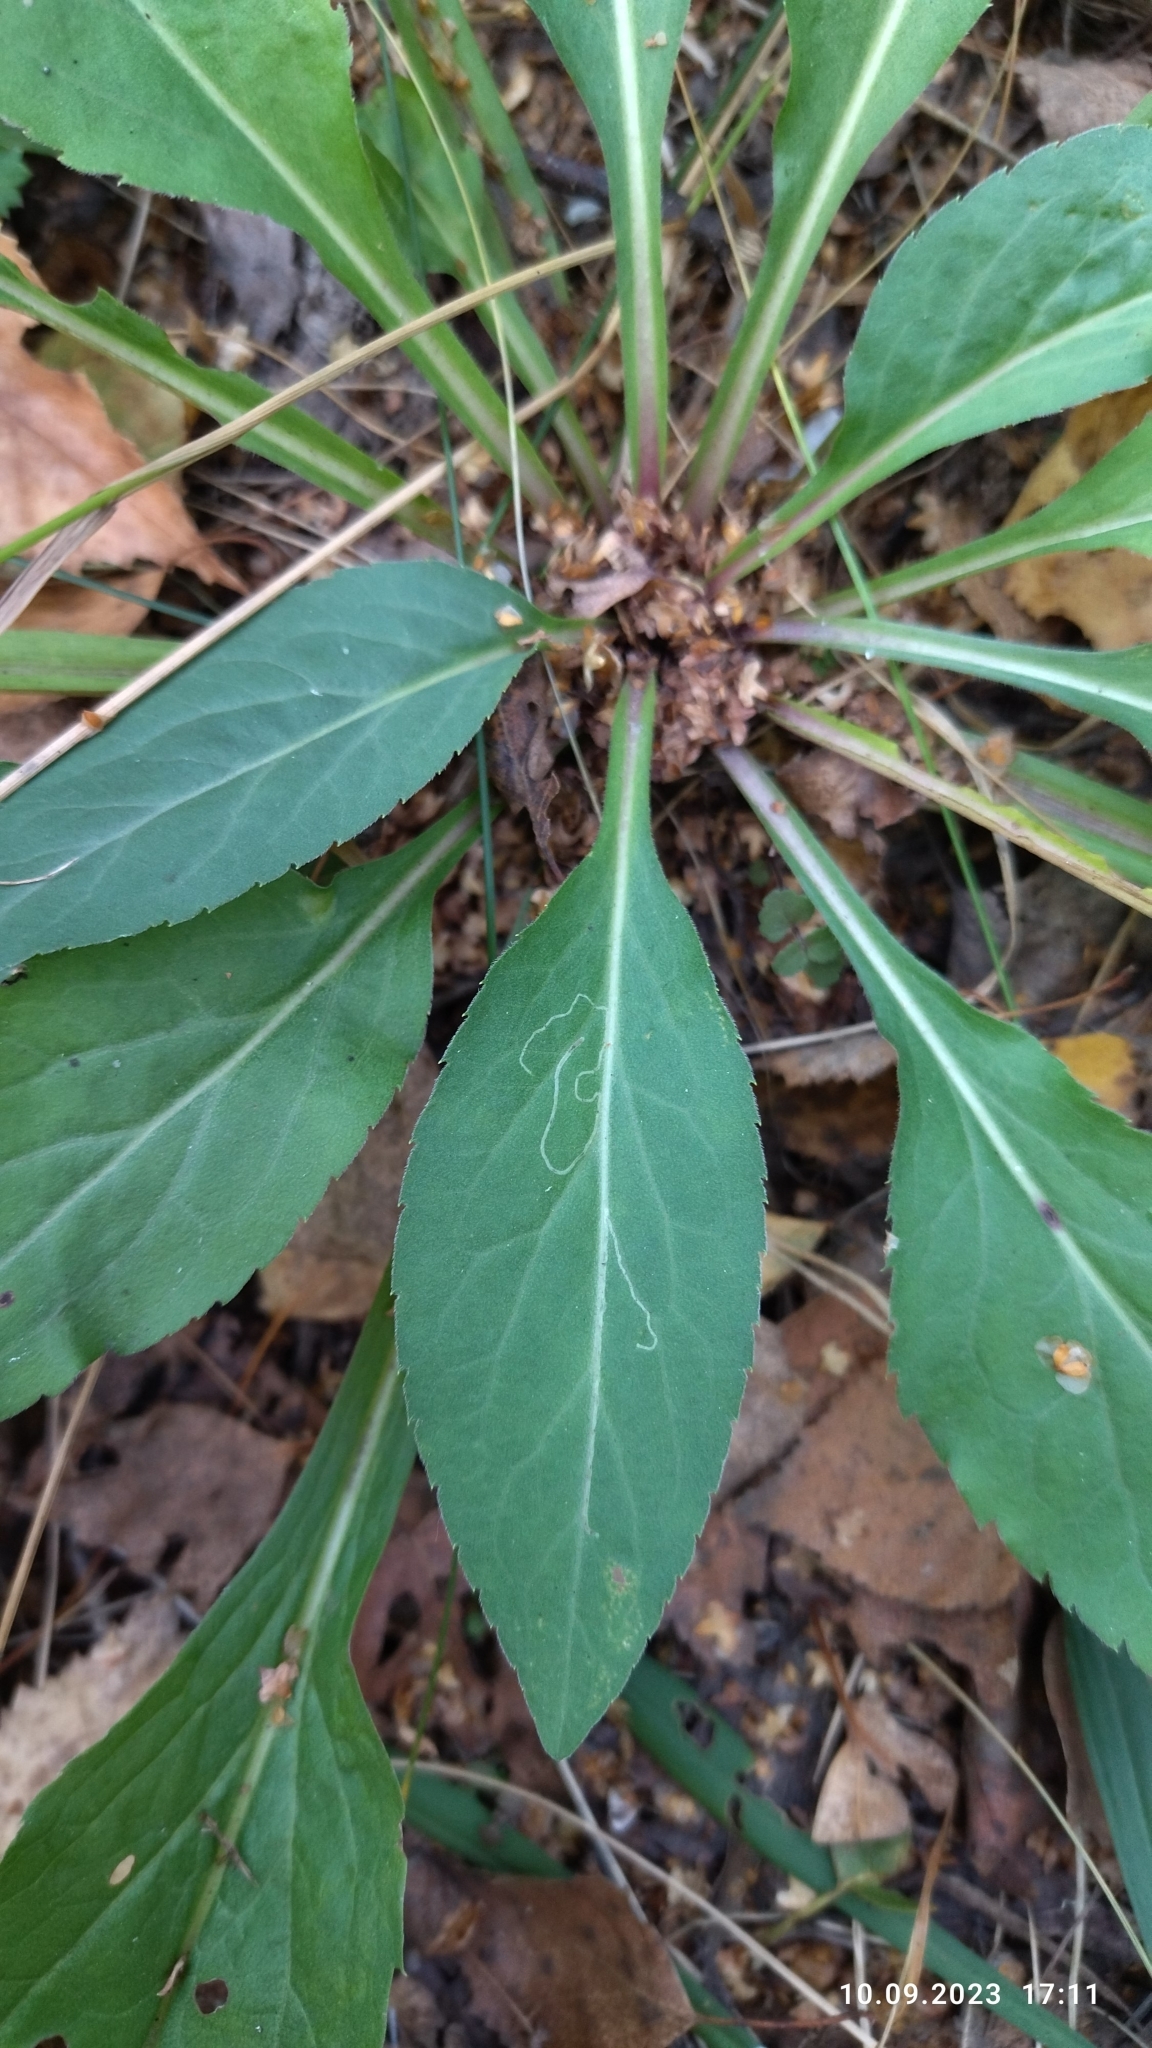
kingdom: Plantae
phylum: Tracheophyta
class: Magnoliopsida
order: Asterales
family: Asteraceae
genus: Solidago
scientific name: Solidago virgaurea
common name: Goldenrod
